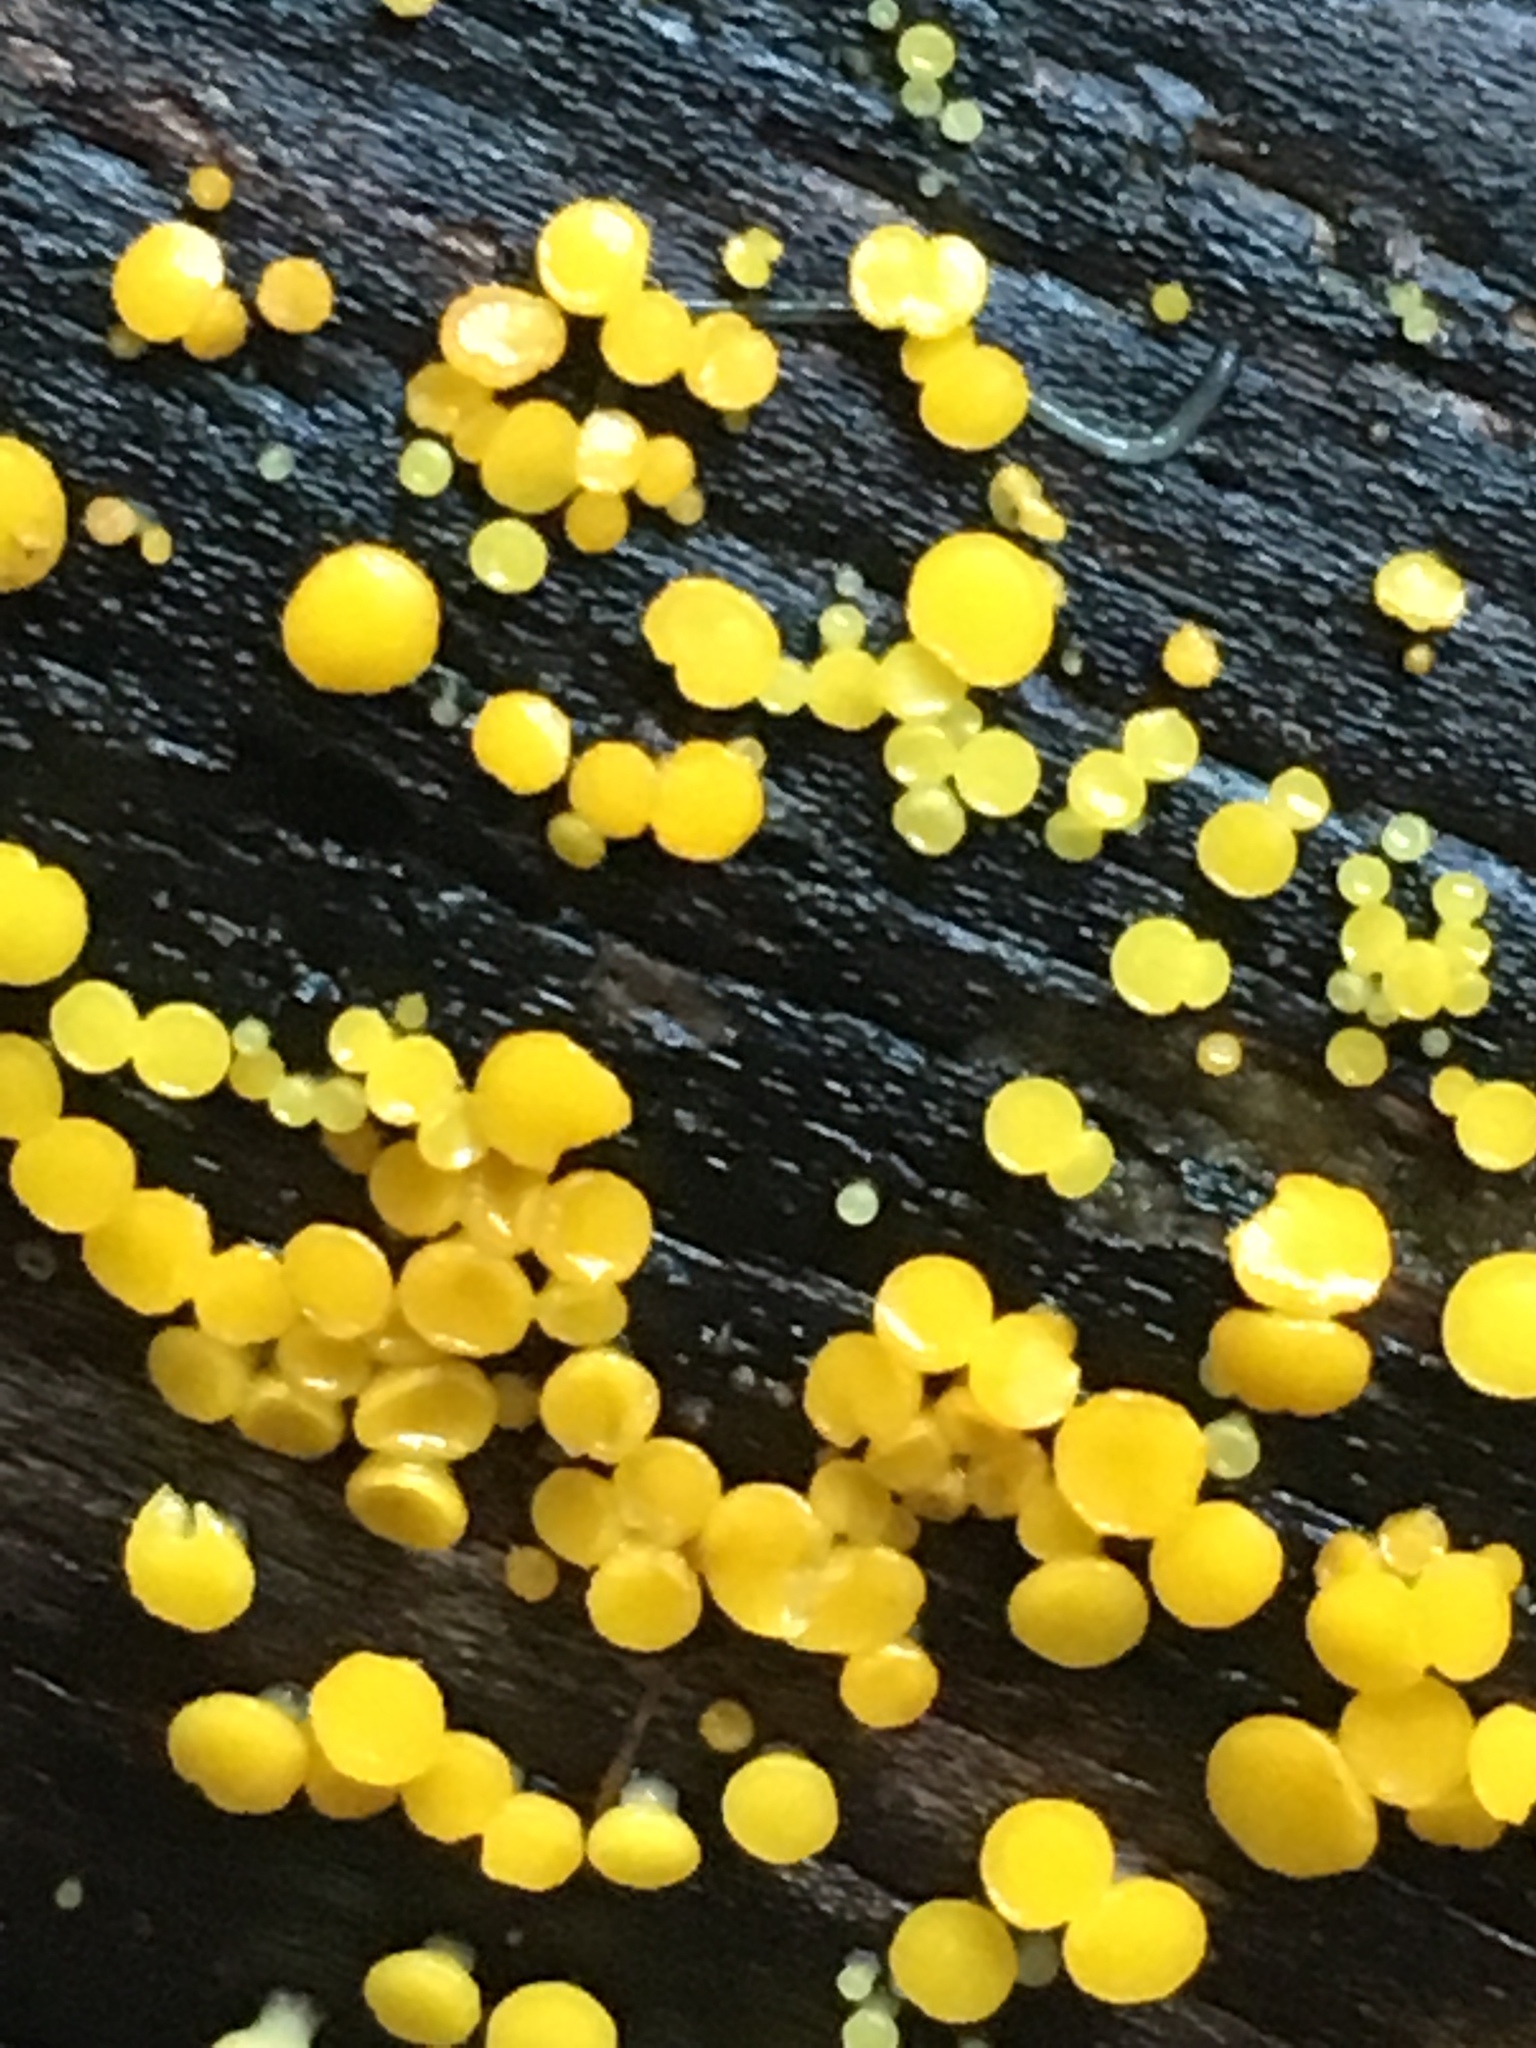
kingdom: Fungi
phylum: Ascomycota
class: Leotiomycetes
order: Helotiales
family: Pezizellaceae
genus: Calycina
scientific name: Calycina citrina
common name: Yellow fairy cups
